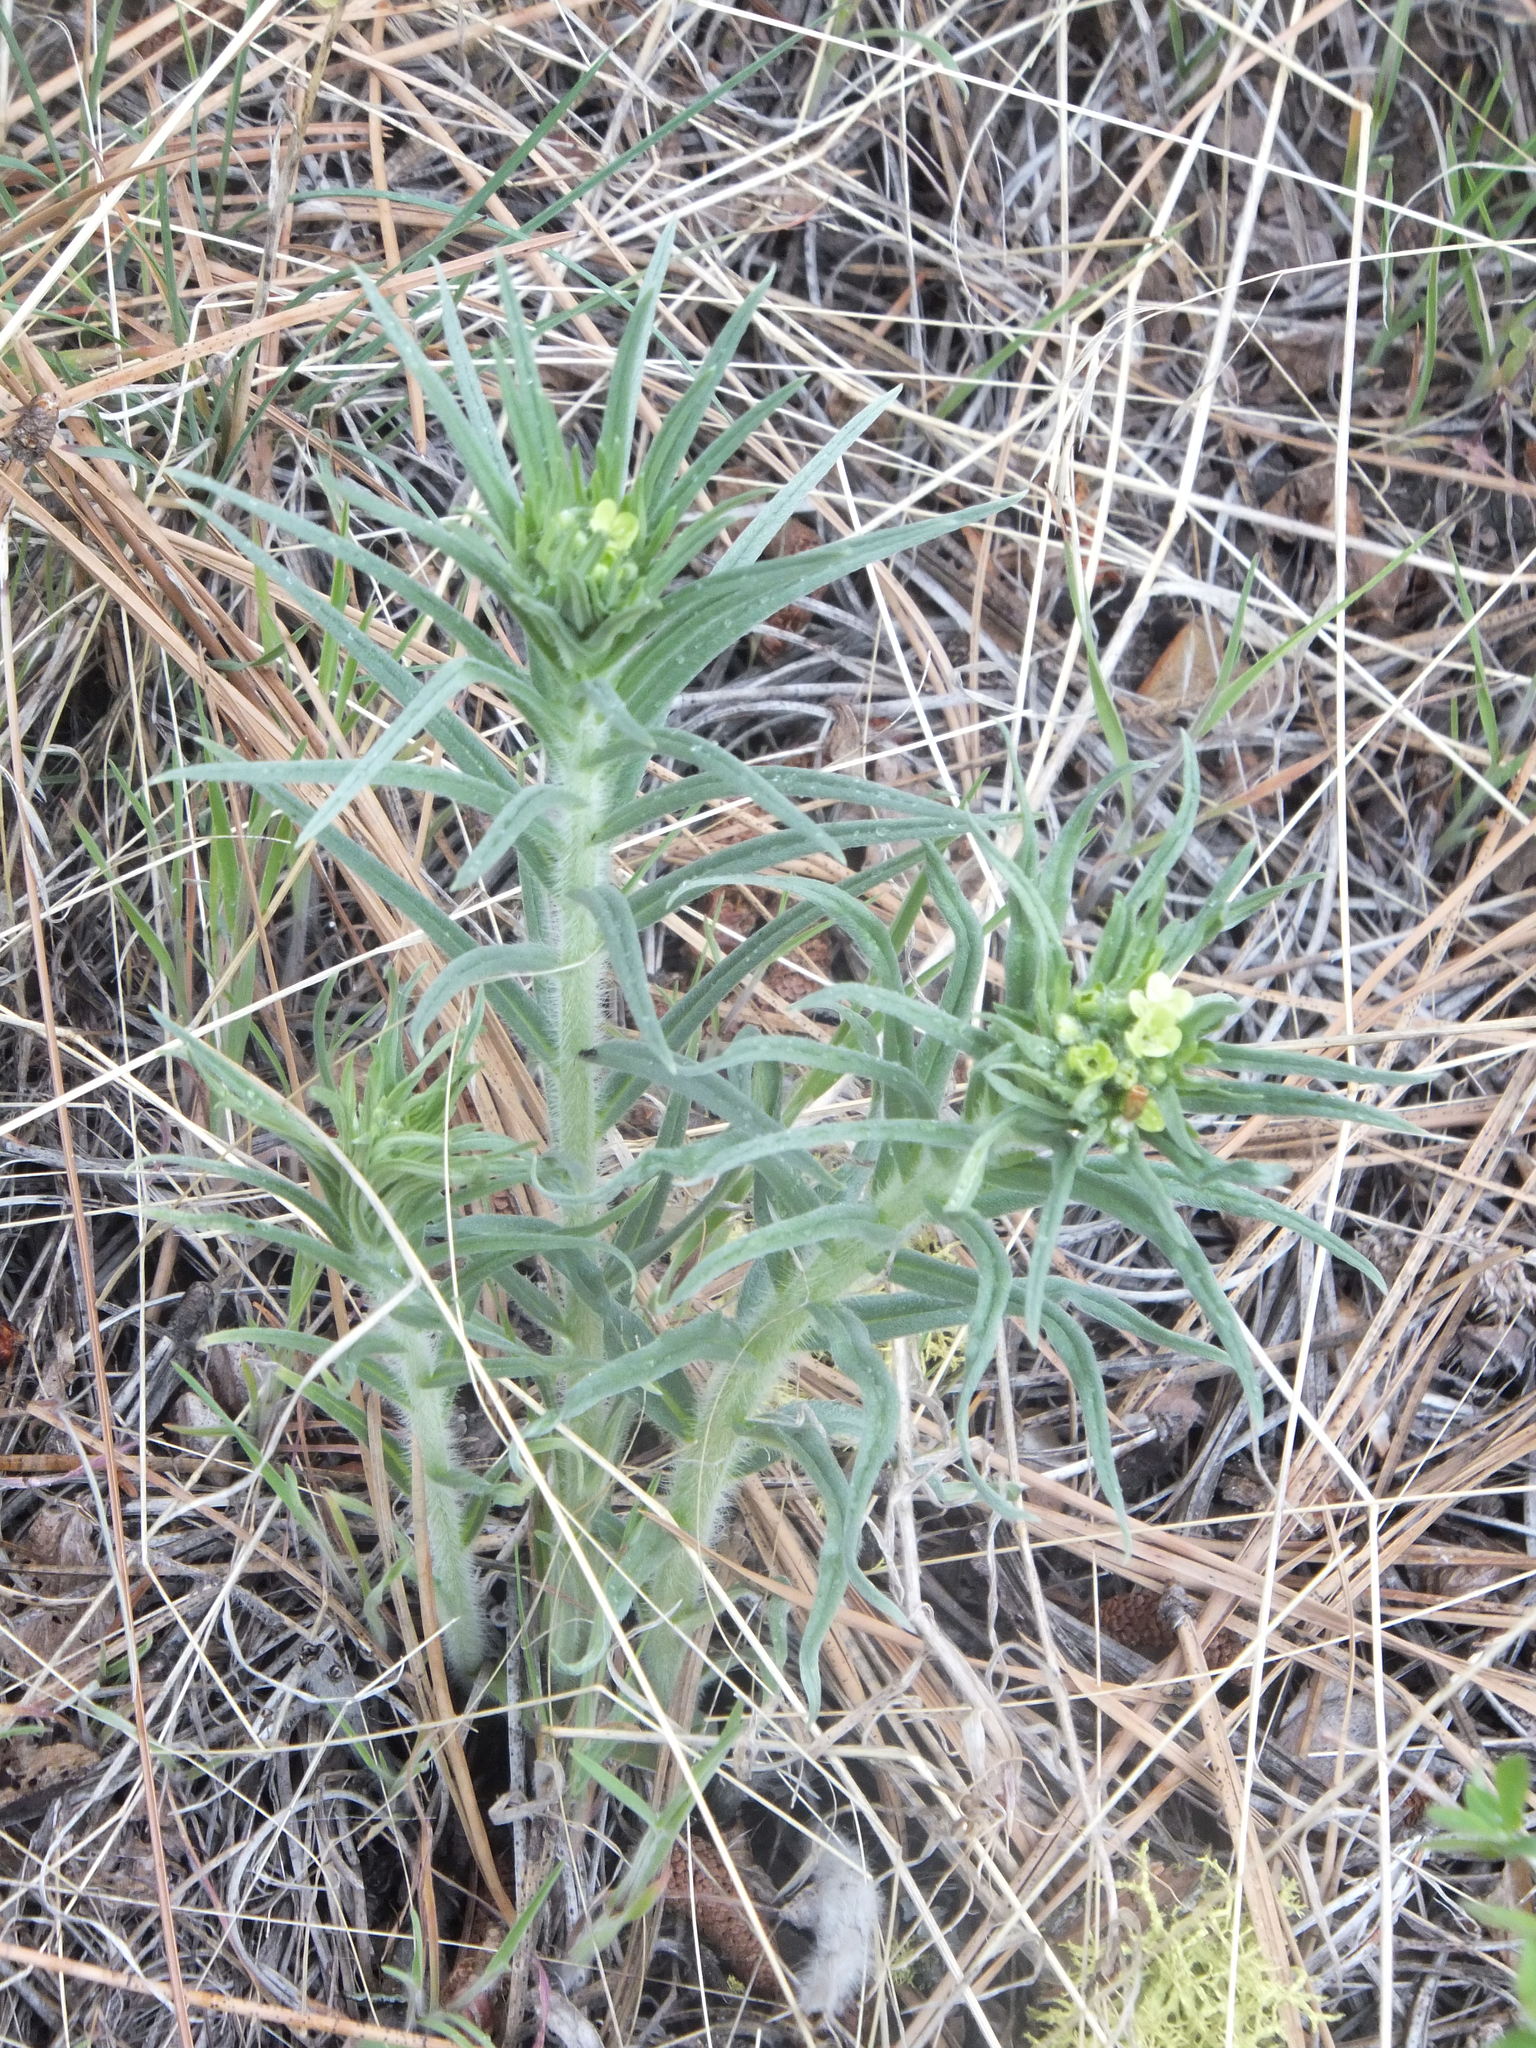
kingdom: Plantae
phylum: Tracheophyta
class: Magnoliopsida
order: Boraginales
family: Boraginaceae
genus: Lithospermum
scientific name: Lithospermum ruderale
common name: Western gromwell
